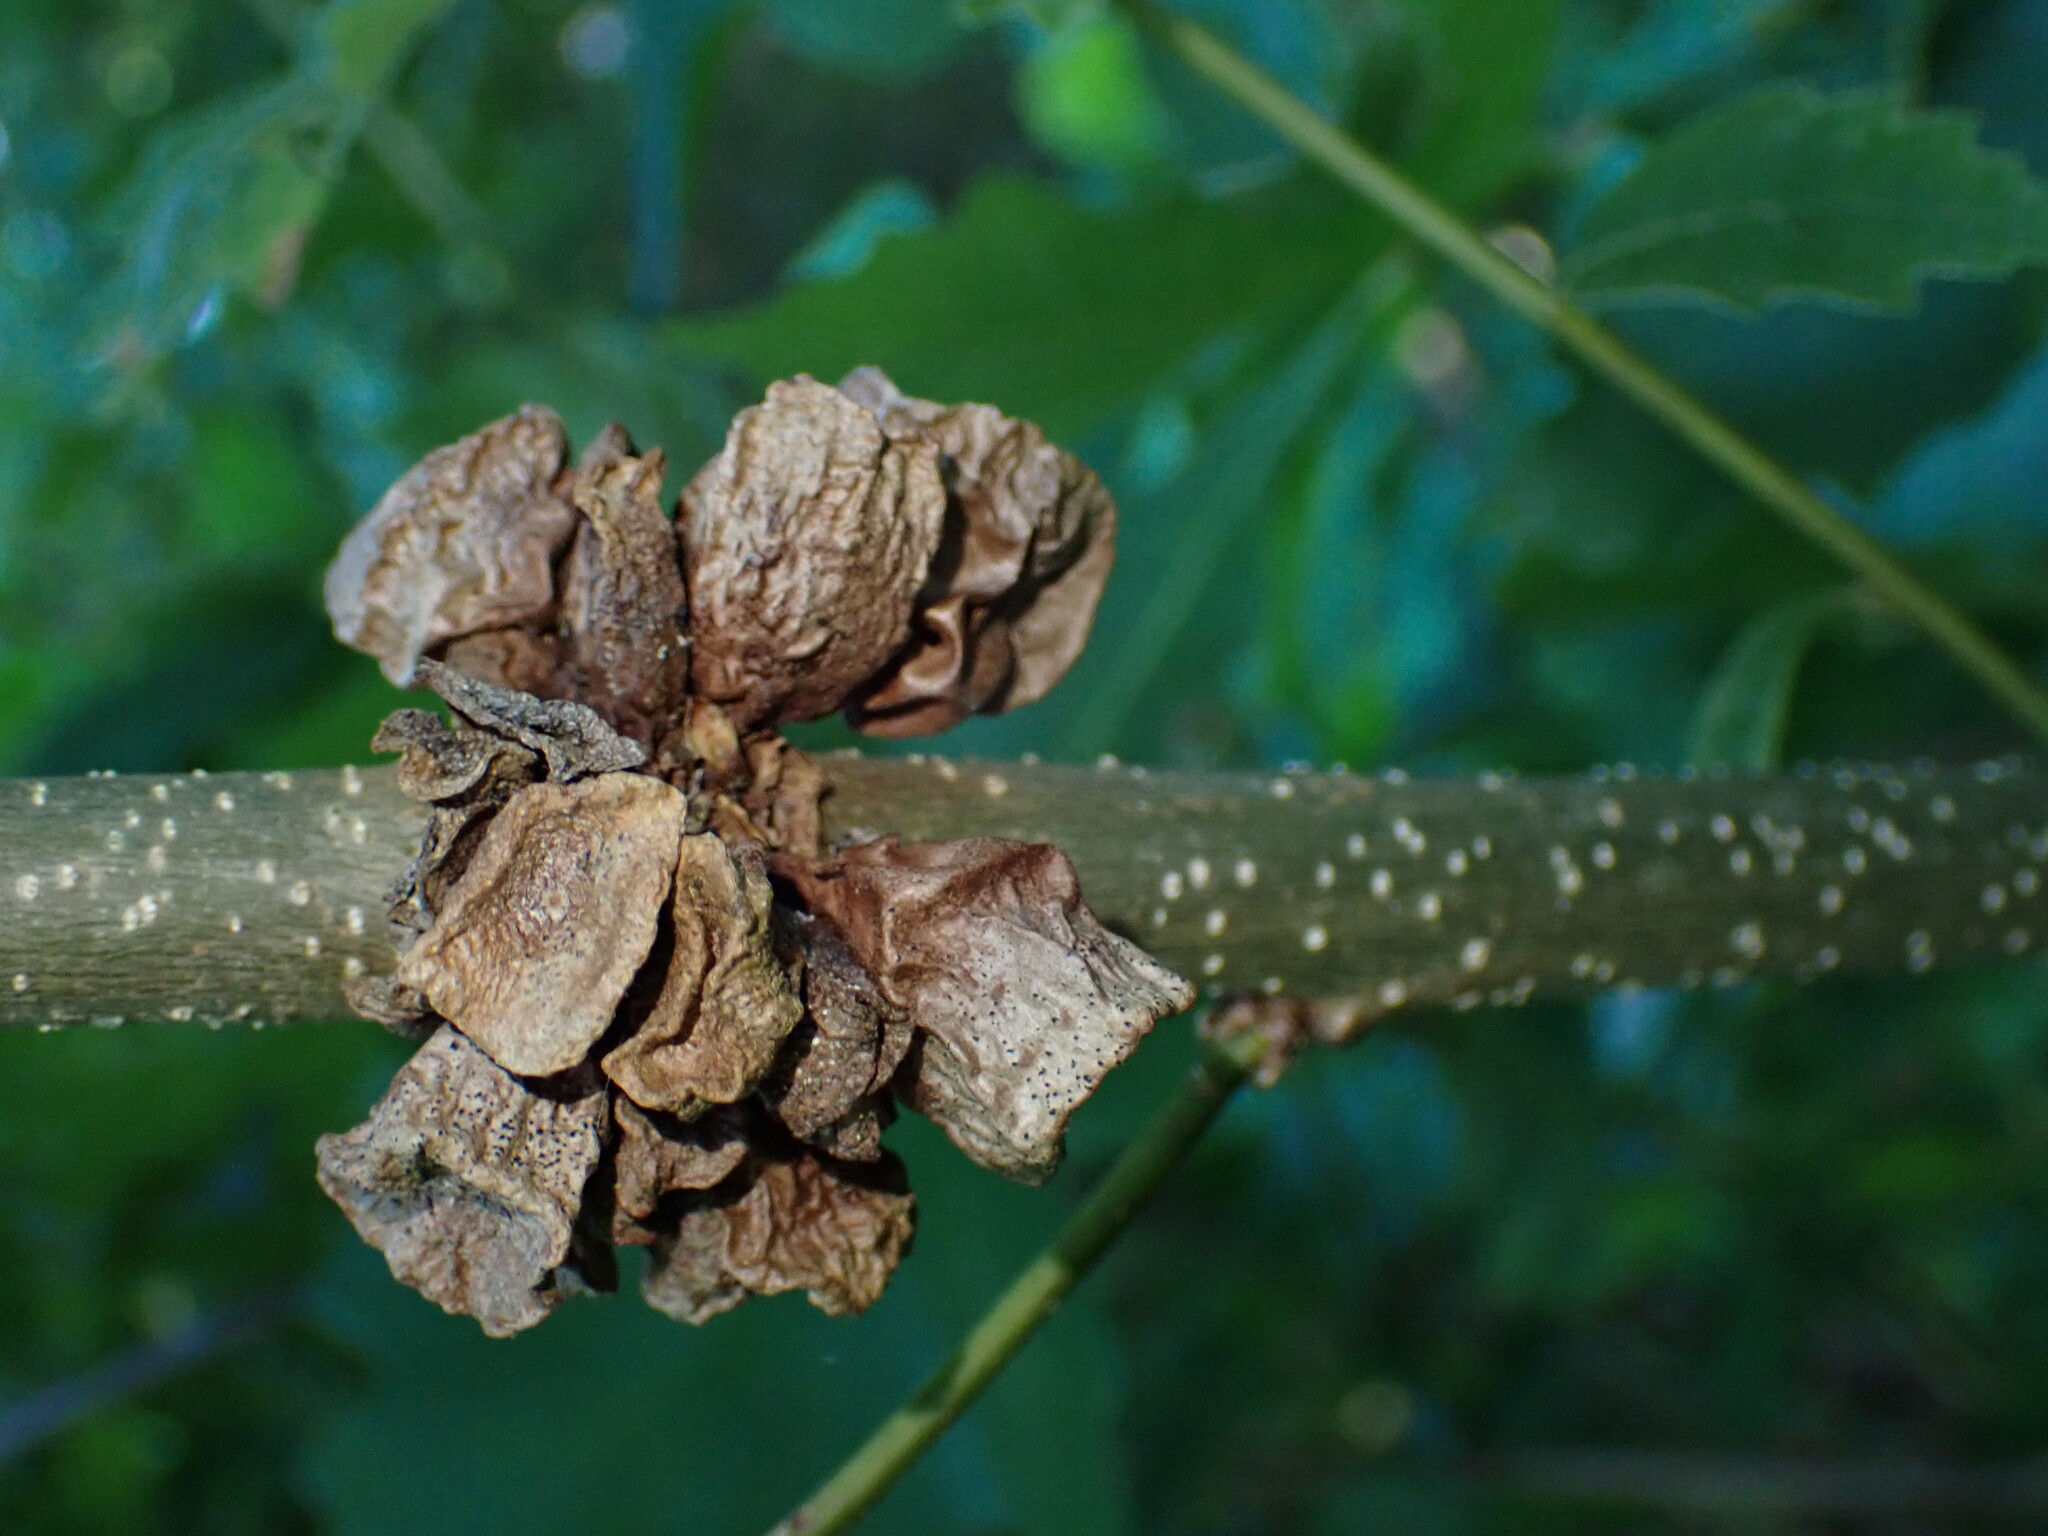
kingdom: Animalia
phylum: Arthropoda
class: Insecta
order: Hymenoptera
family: Cynipidae
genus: Andricus
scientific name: Andricus
